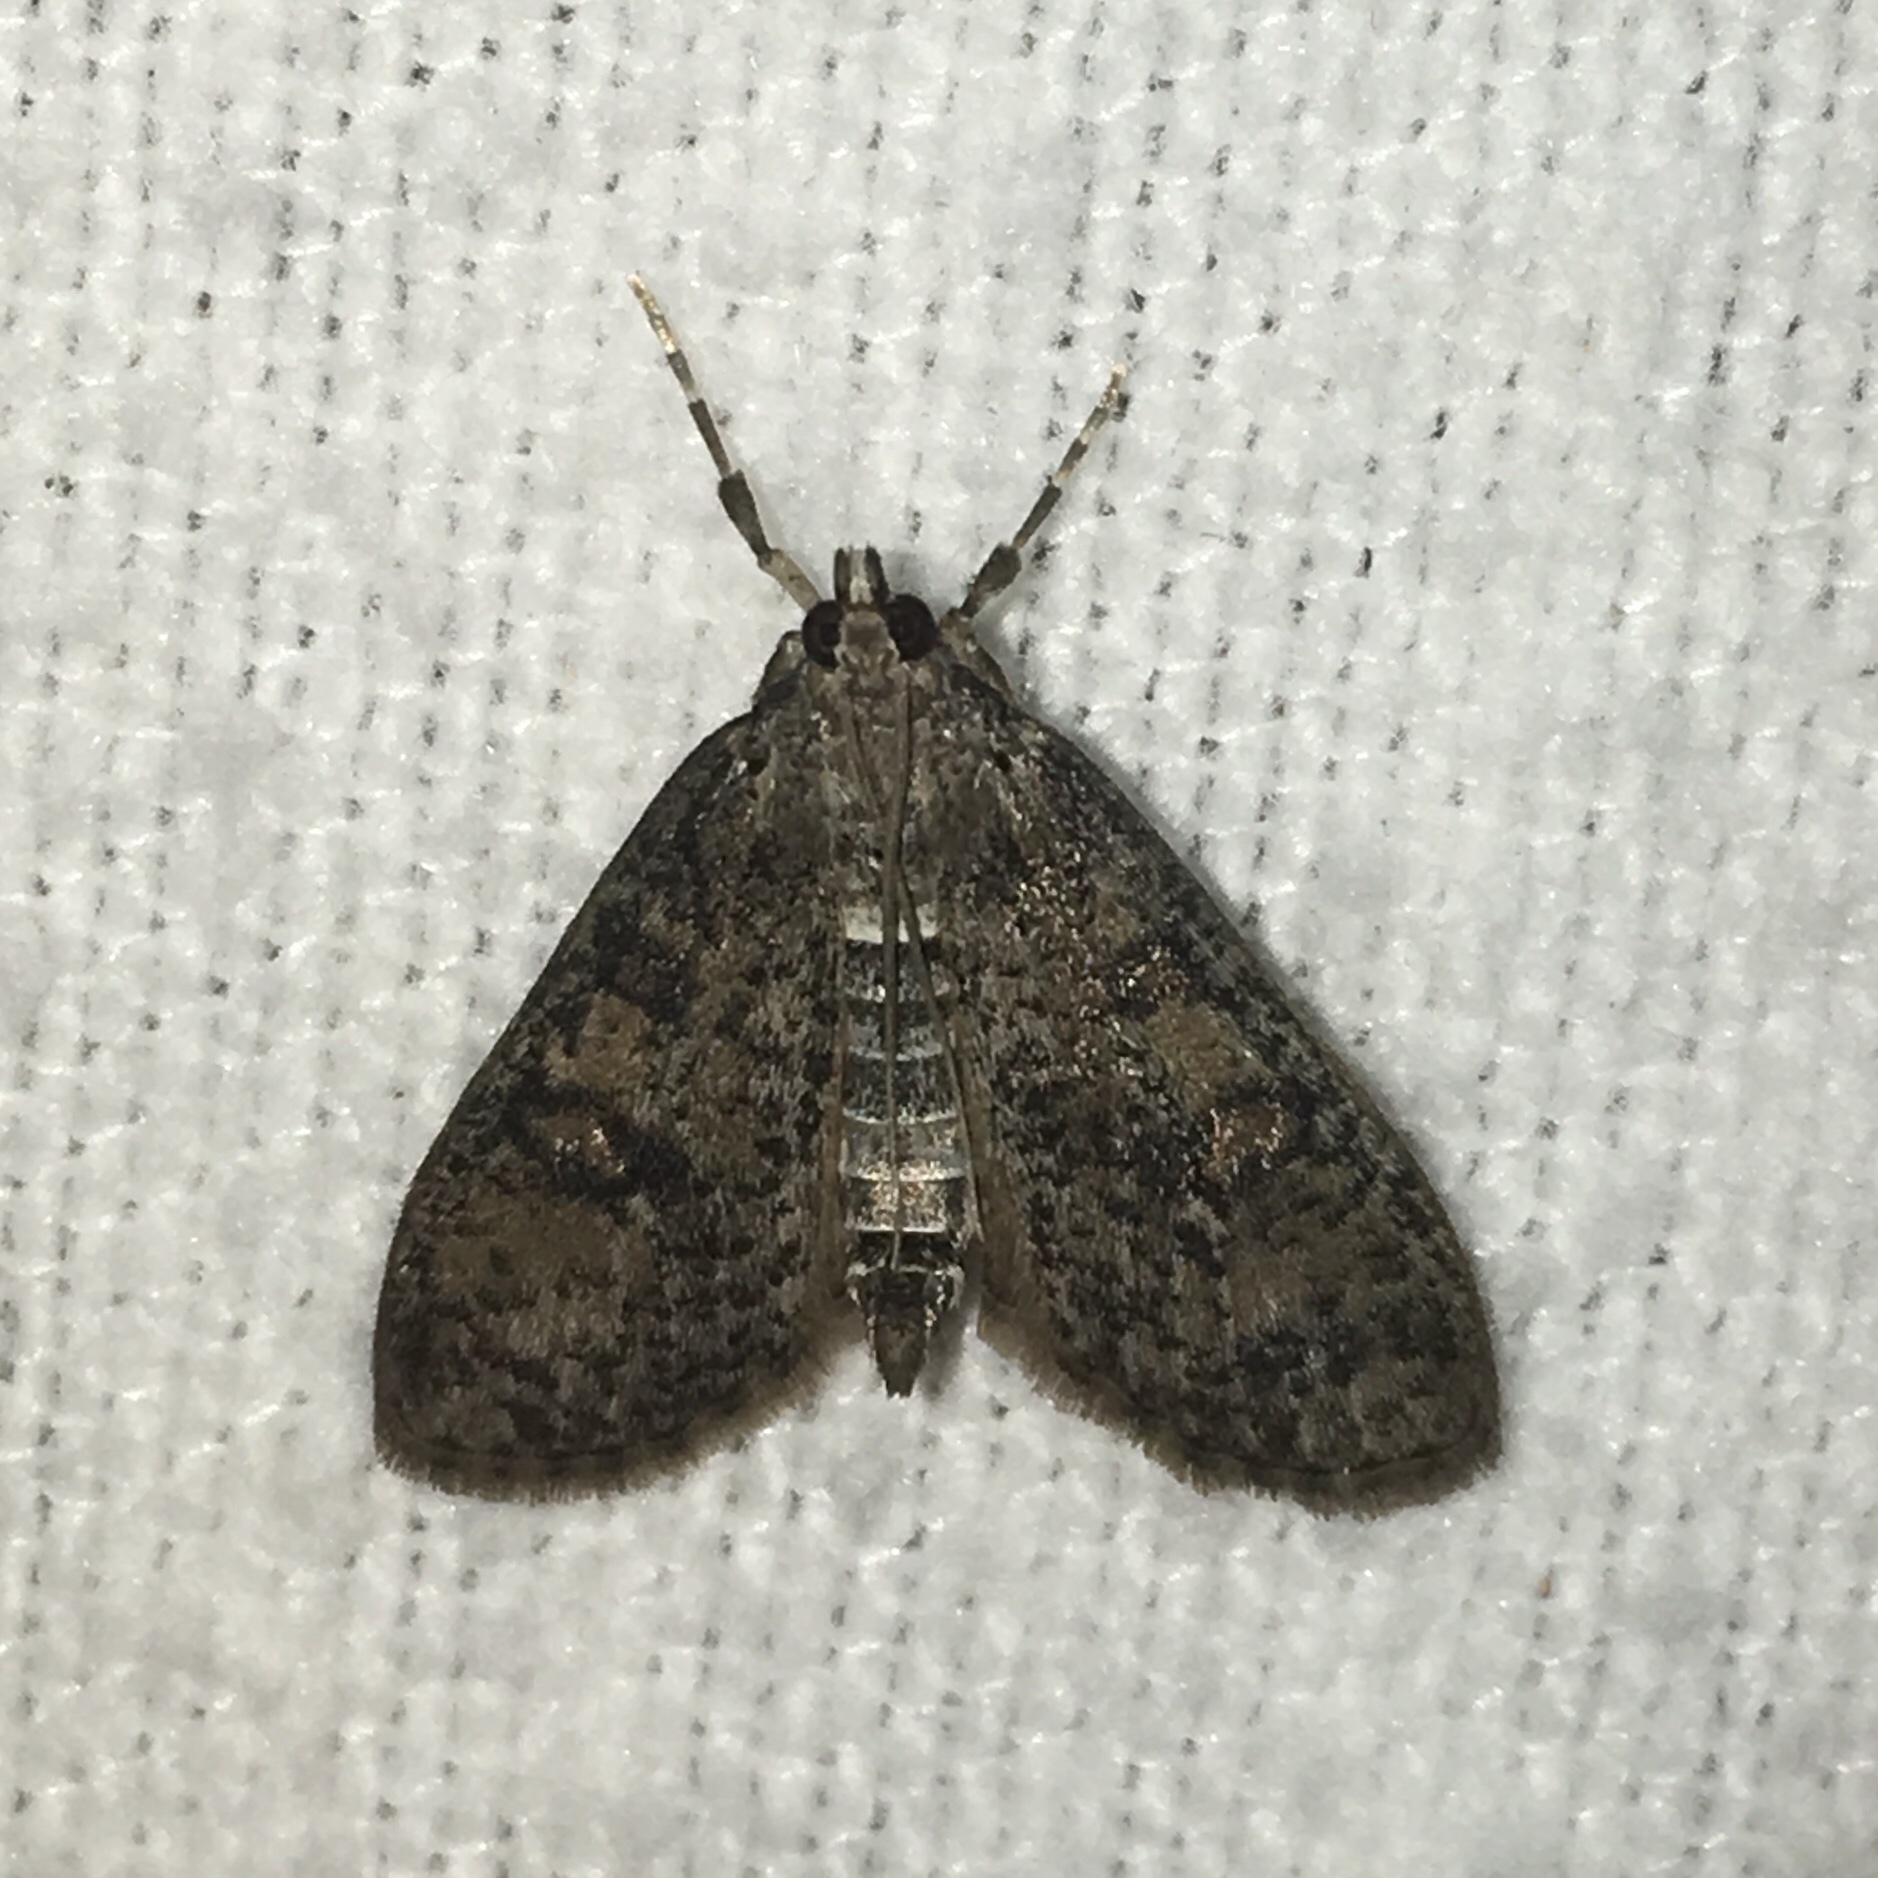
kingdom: Animalia
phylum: Arthropoda
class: Insecta
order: Lepidoptera
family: Crambidae
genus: Palpita
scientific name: Palpita aenescentalis
